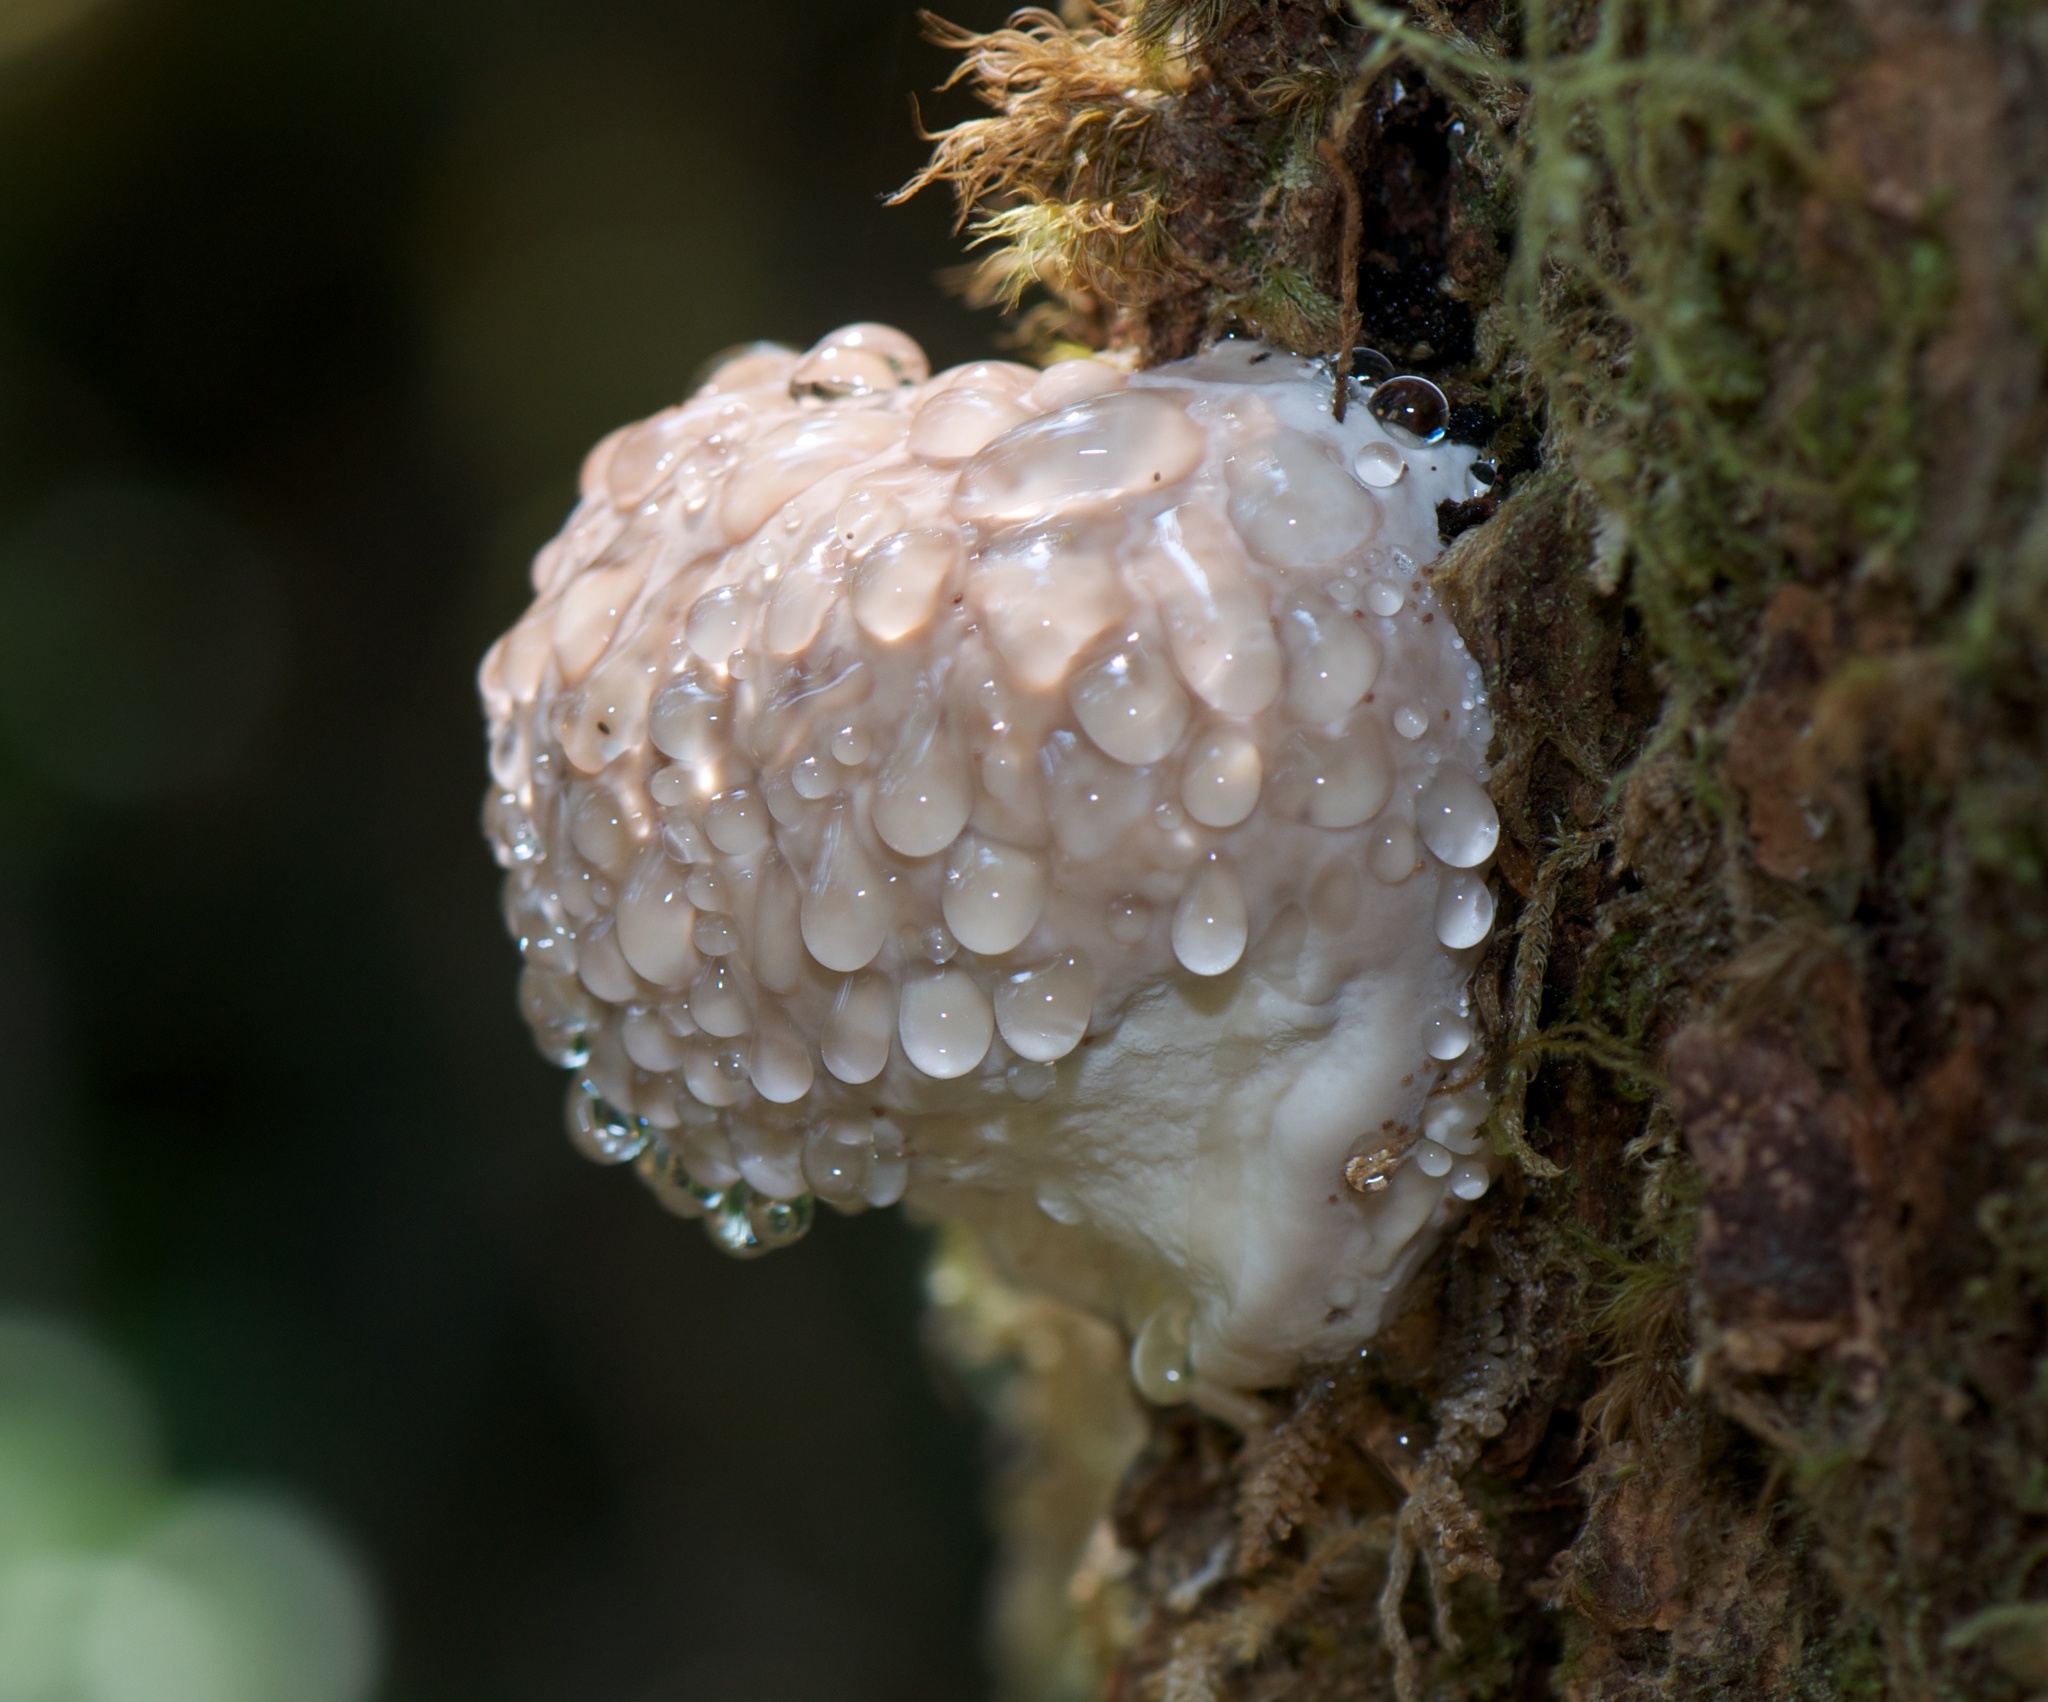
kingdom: Fungi
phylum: Basidiomycota
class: Agaricomycetes
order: Polyporales
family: Fomitopsidaceae
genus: Fomitopsis
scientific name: Fomitopsis mounceae
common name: Northern red belt
